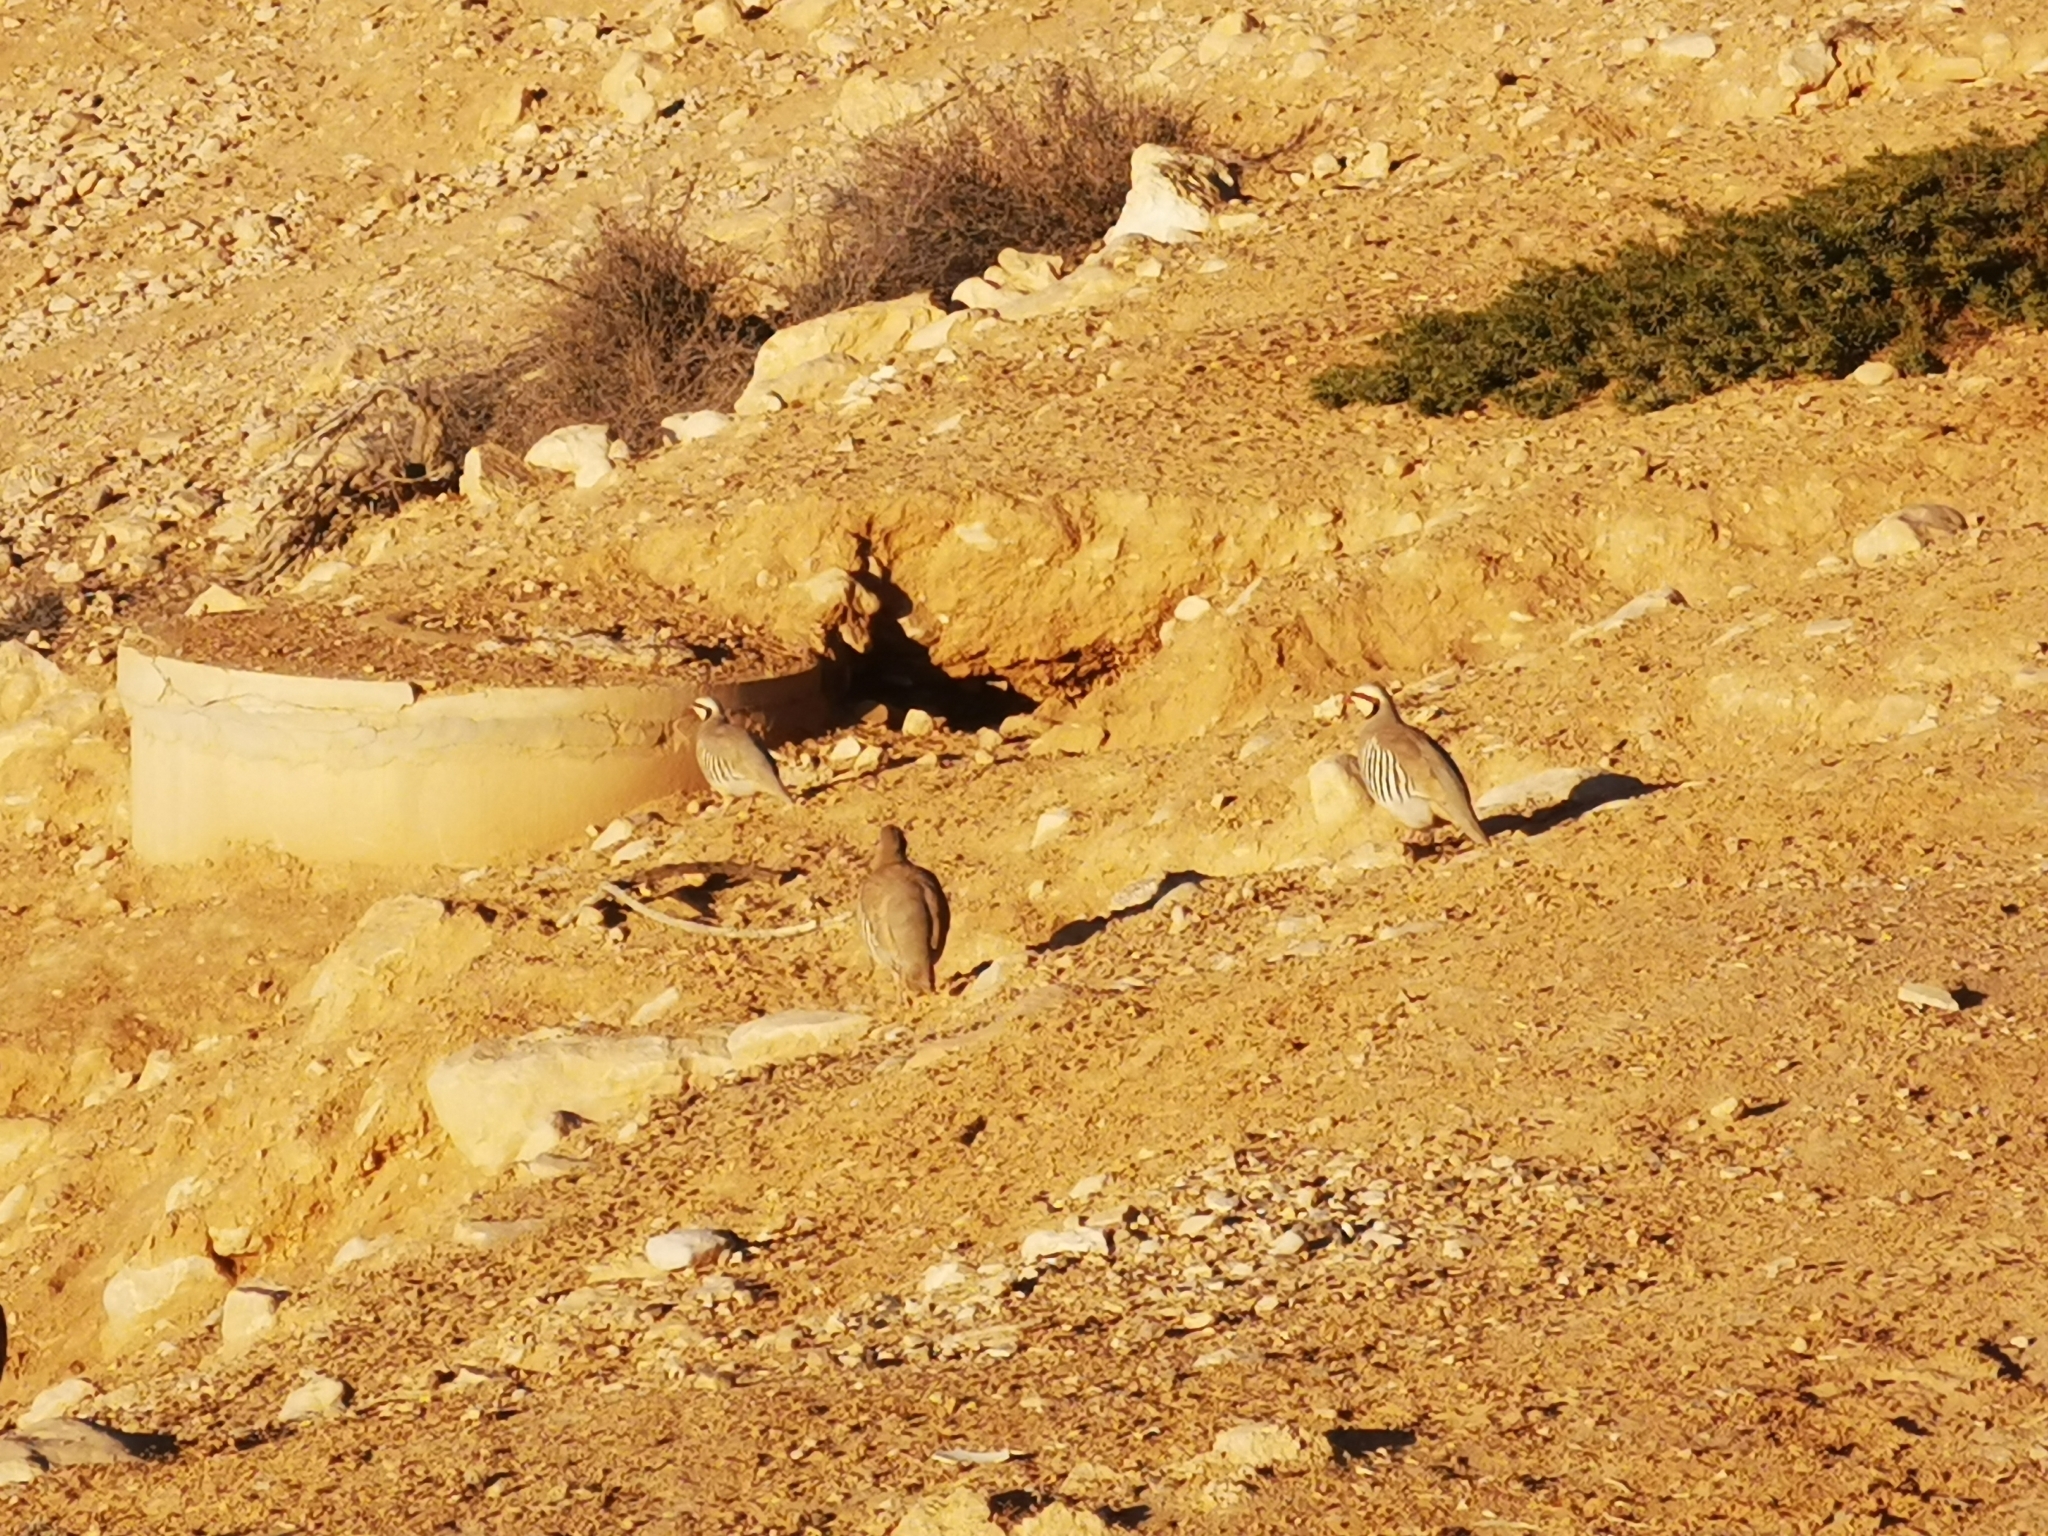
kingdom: Animalia
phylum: Chordata
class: Aves
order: Galliformes
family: Phasianidae
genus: Alectoris
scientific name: Alectoris chukar
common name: Chukar
